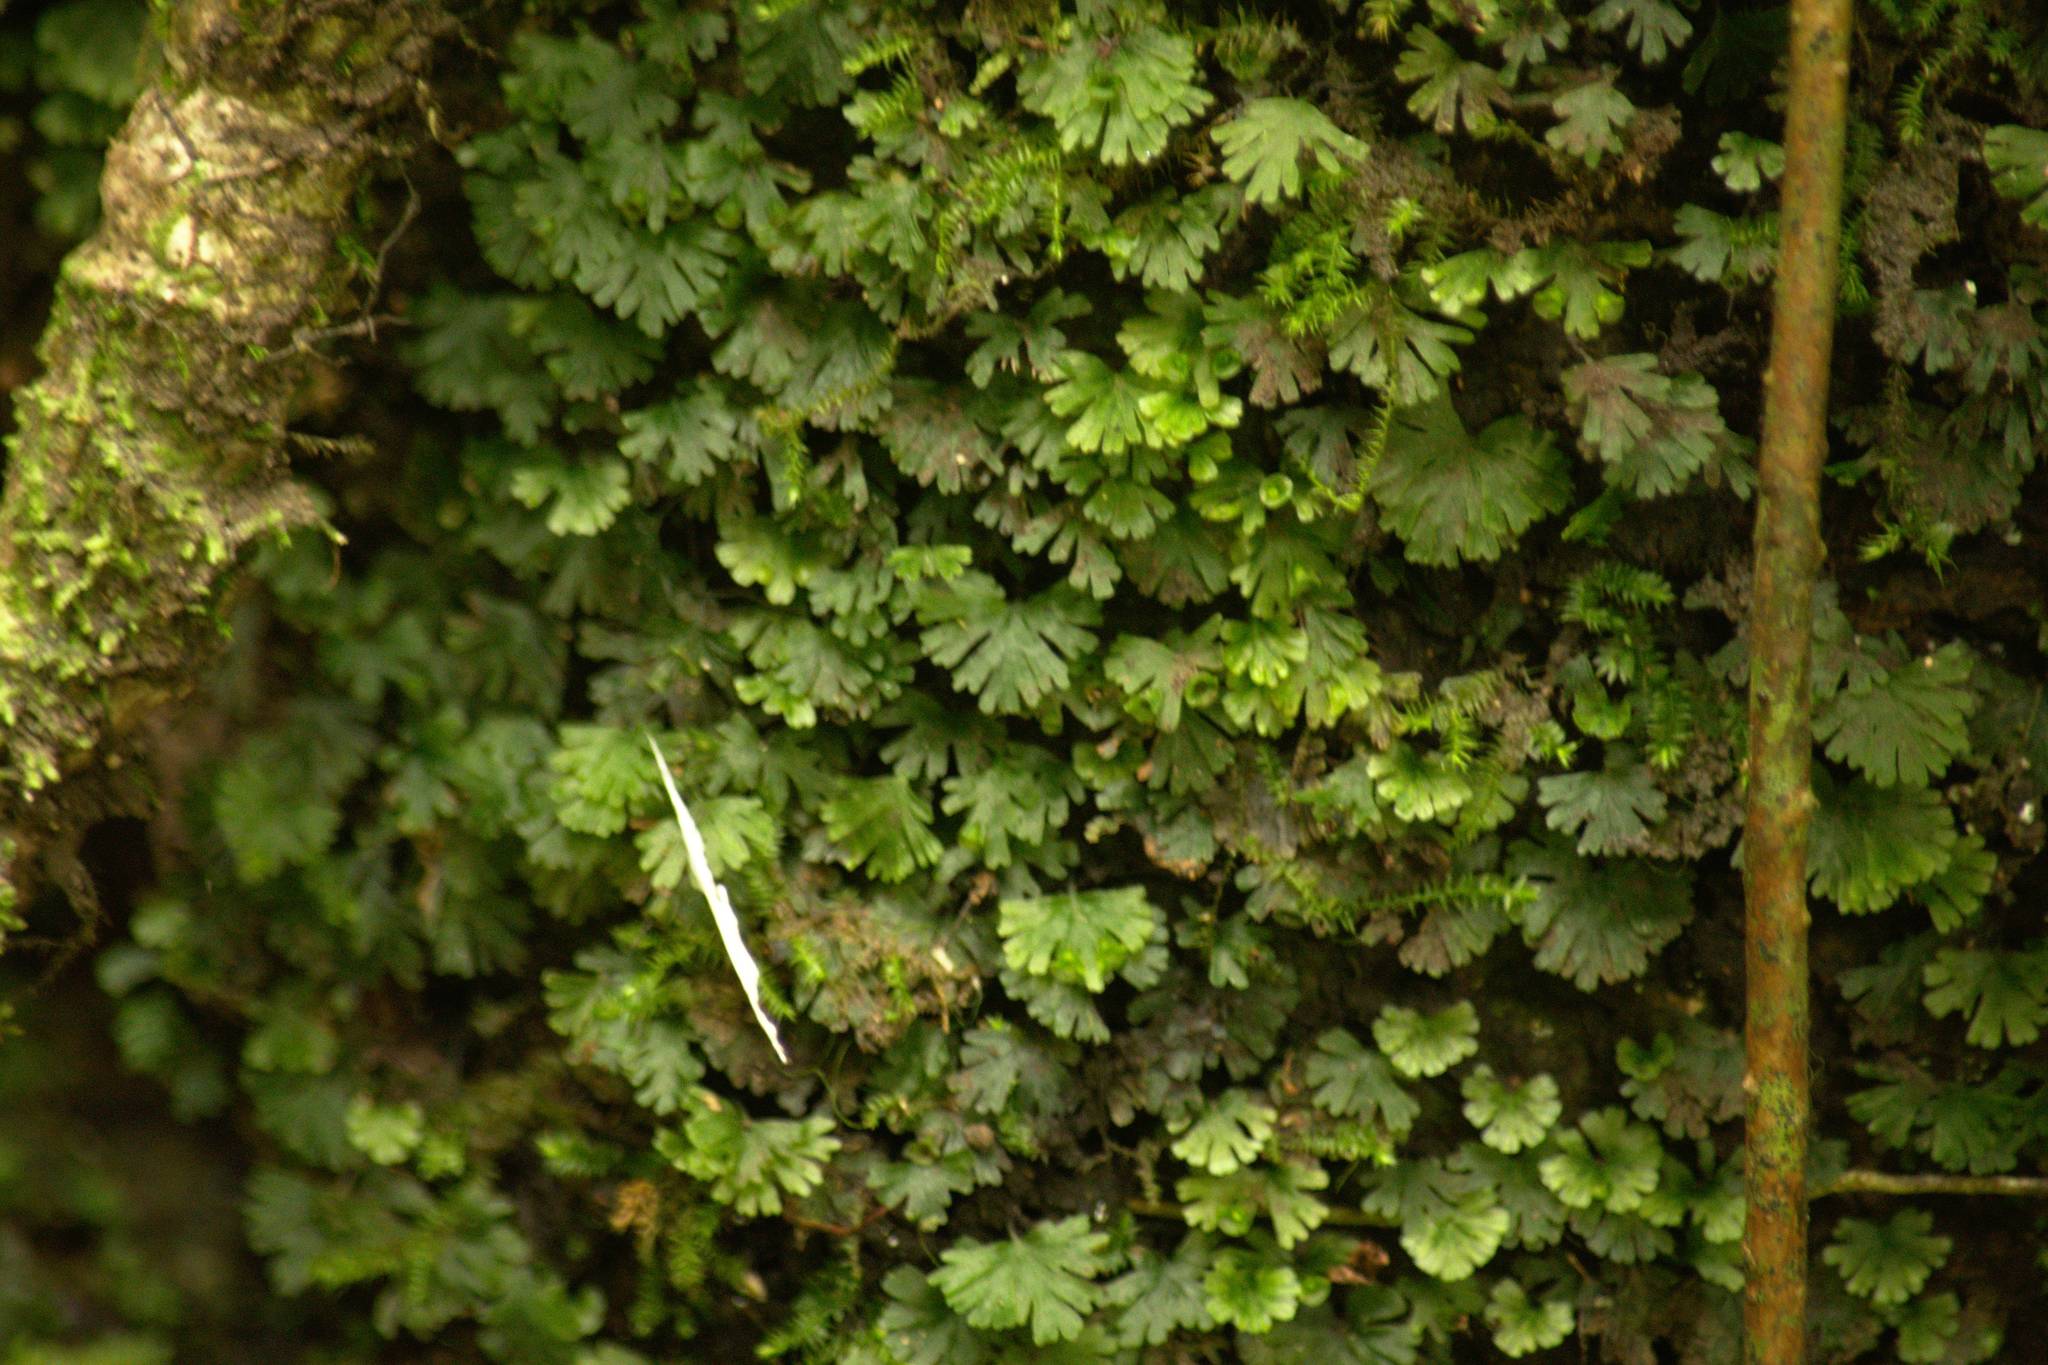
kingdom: Plantae
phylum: Tracheophyta
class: Polypodiopsida
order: Hymenophyllales
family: Hymenophyllaceae
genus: Crepidomanes
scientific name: Crepidomanes parvulum
